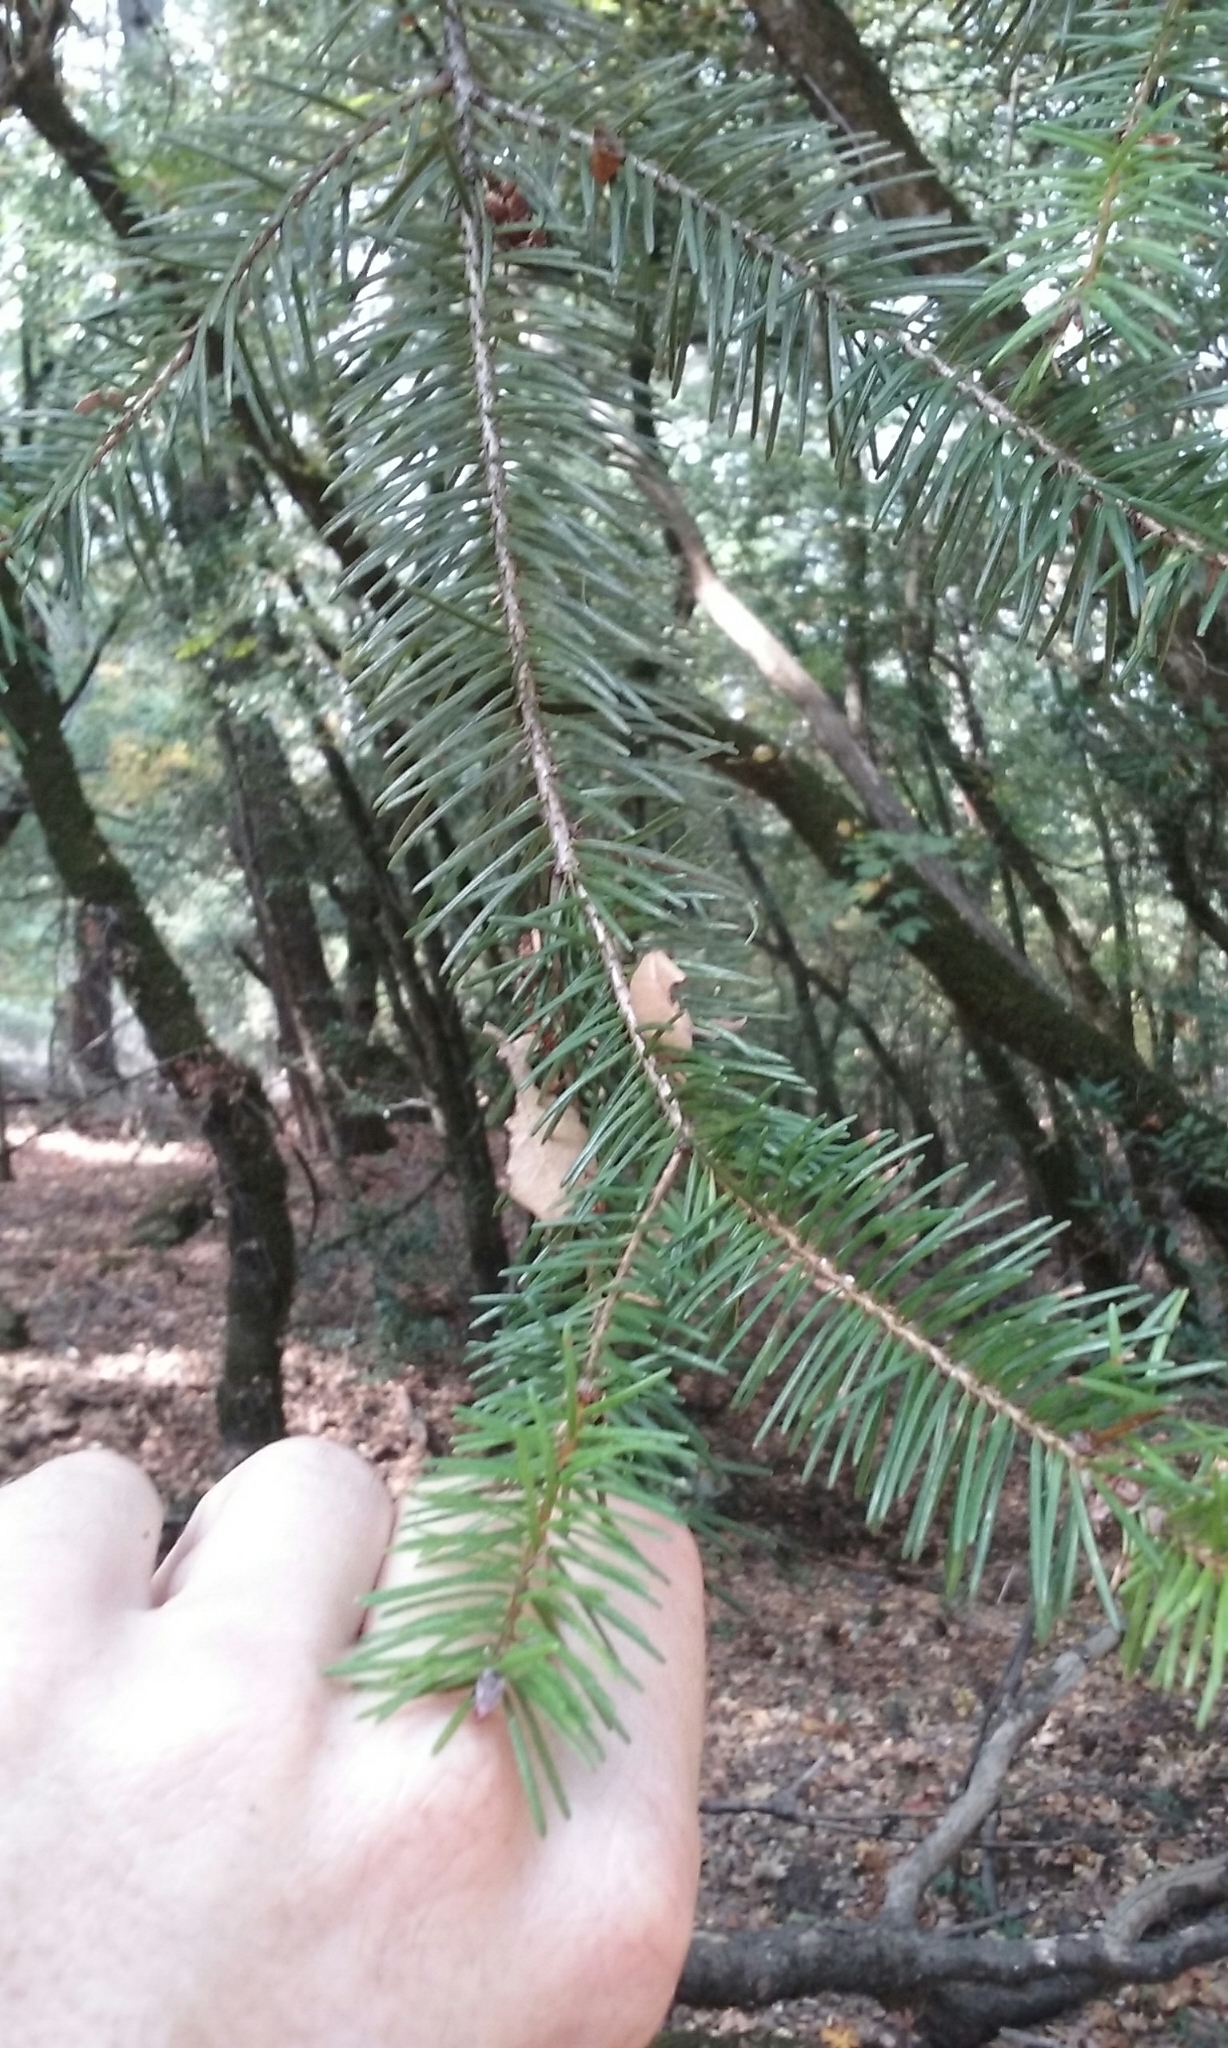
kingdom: Plantae
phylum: Tracheophyta
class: Pinopsida
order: Pinales
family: Pinaceae
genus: Pseudotsuga
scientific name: Pseudotsuga menziesii
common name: Douglas fir
